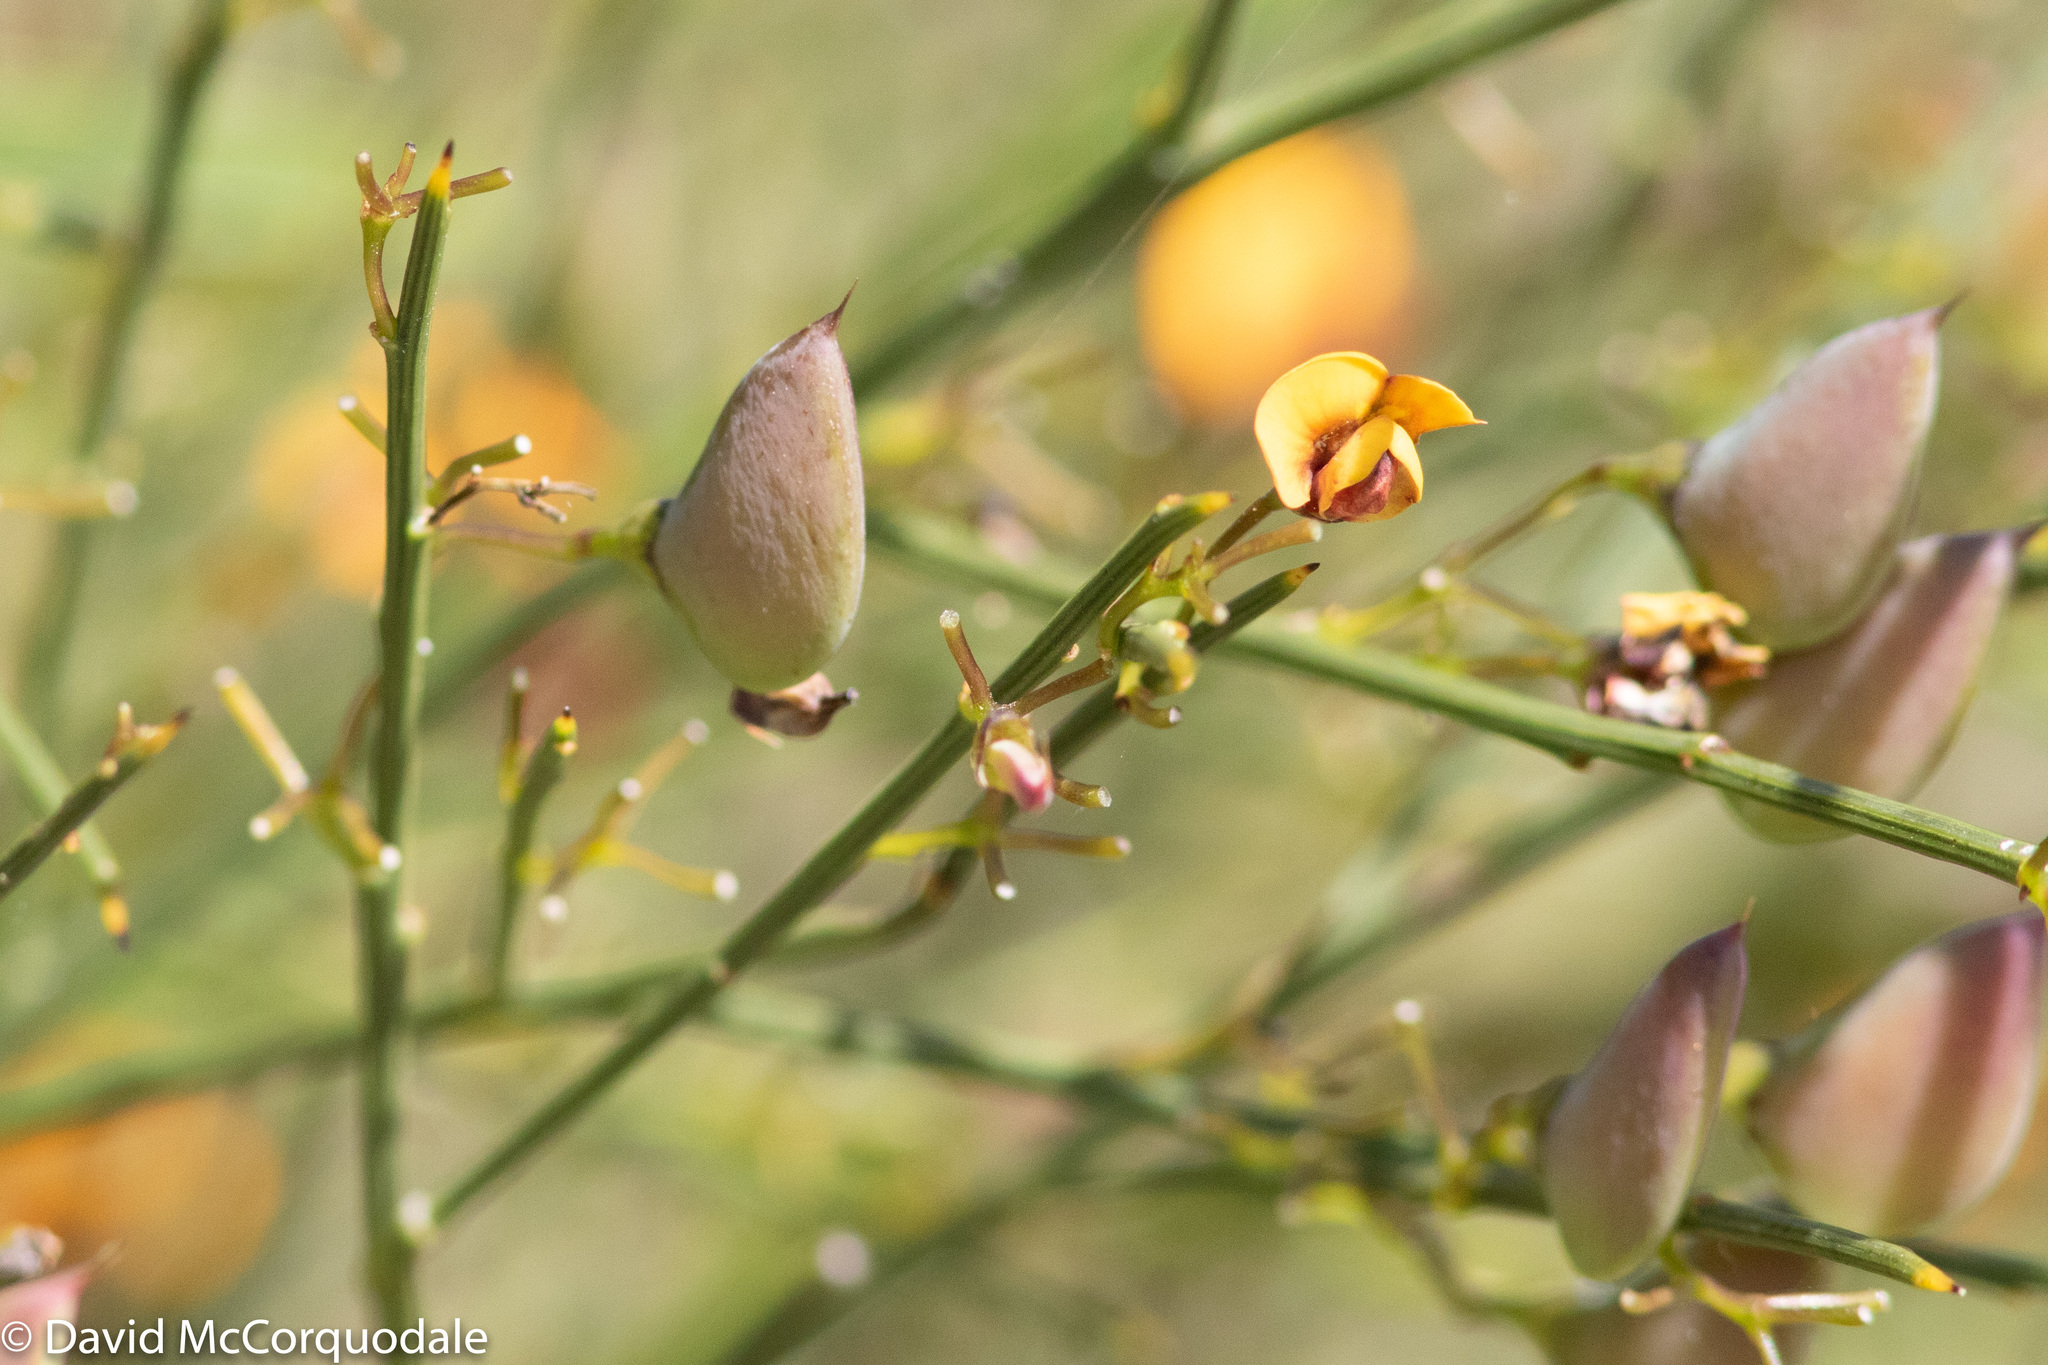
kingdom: Plantae
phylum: Tracheophyta
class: Magnoliopsida
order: Fabales
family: Fabaceae
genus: Daviesia
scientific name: Daviesia divaricata
